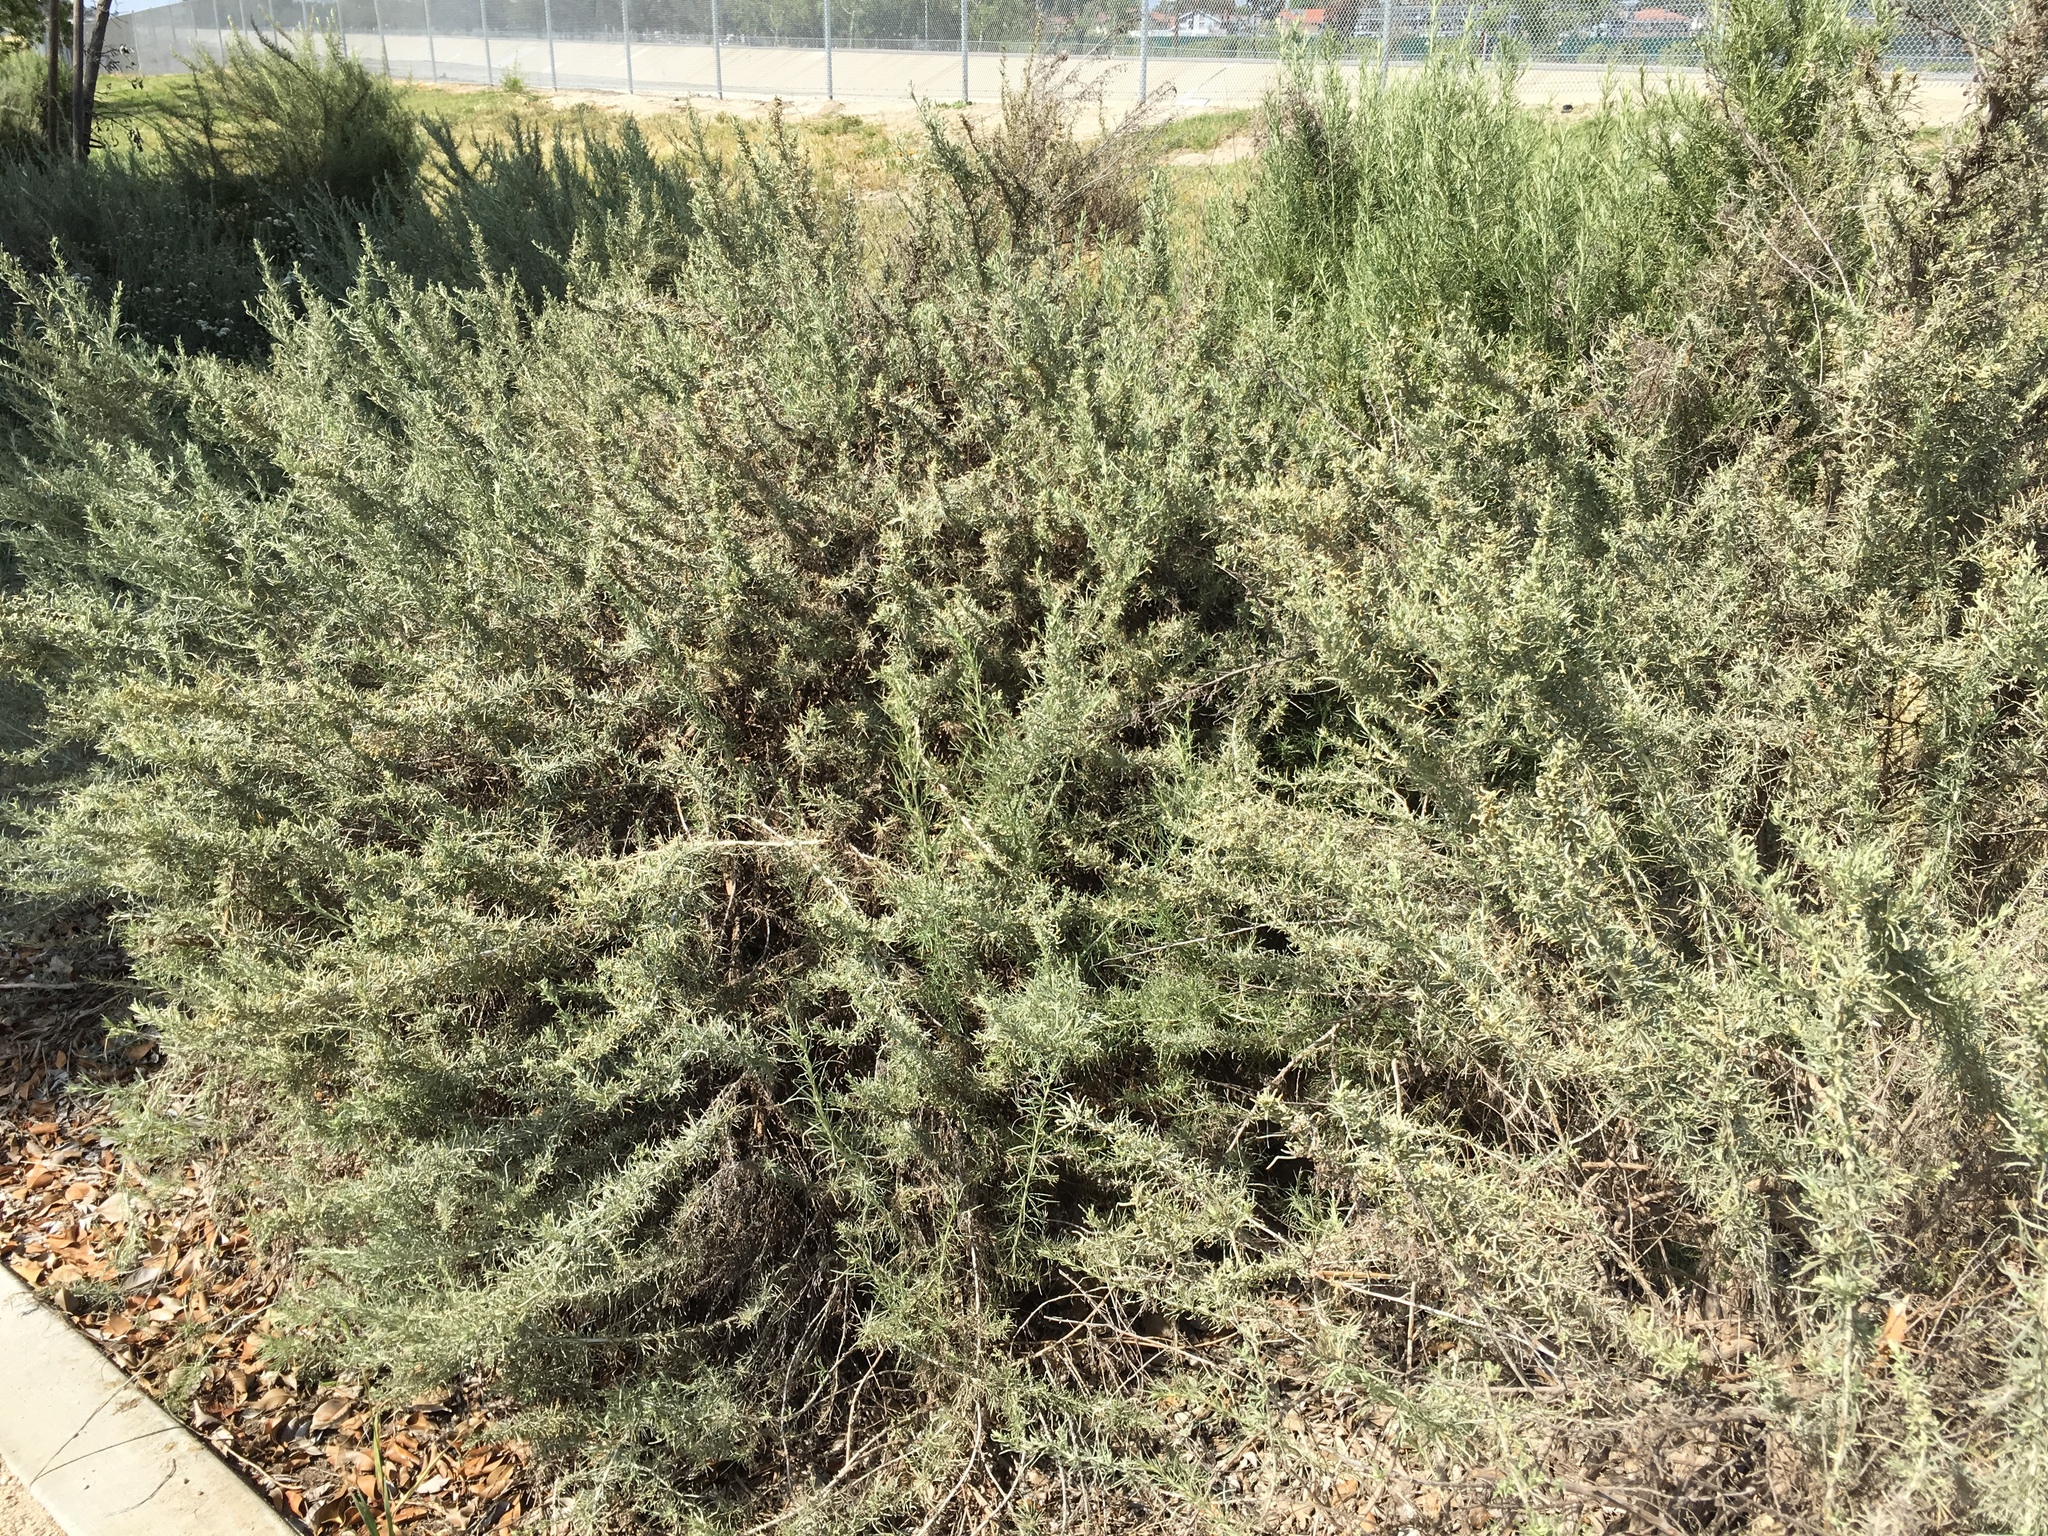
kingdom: Plantae
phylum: Tracheophyta
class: Magnoliopsida
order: Asterales
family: Asteraceae
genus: Artemisia
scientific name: Artemisia californica
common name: California sagebrush
